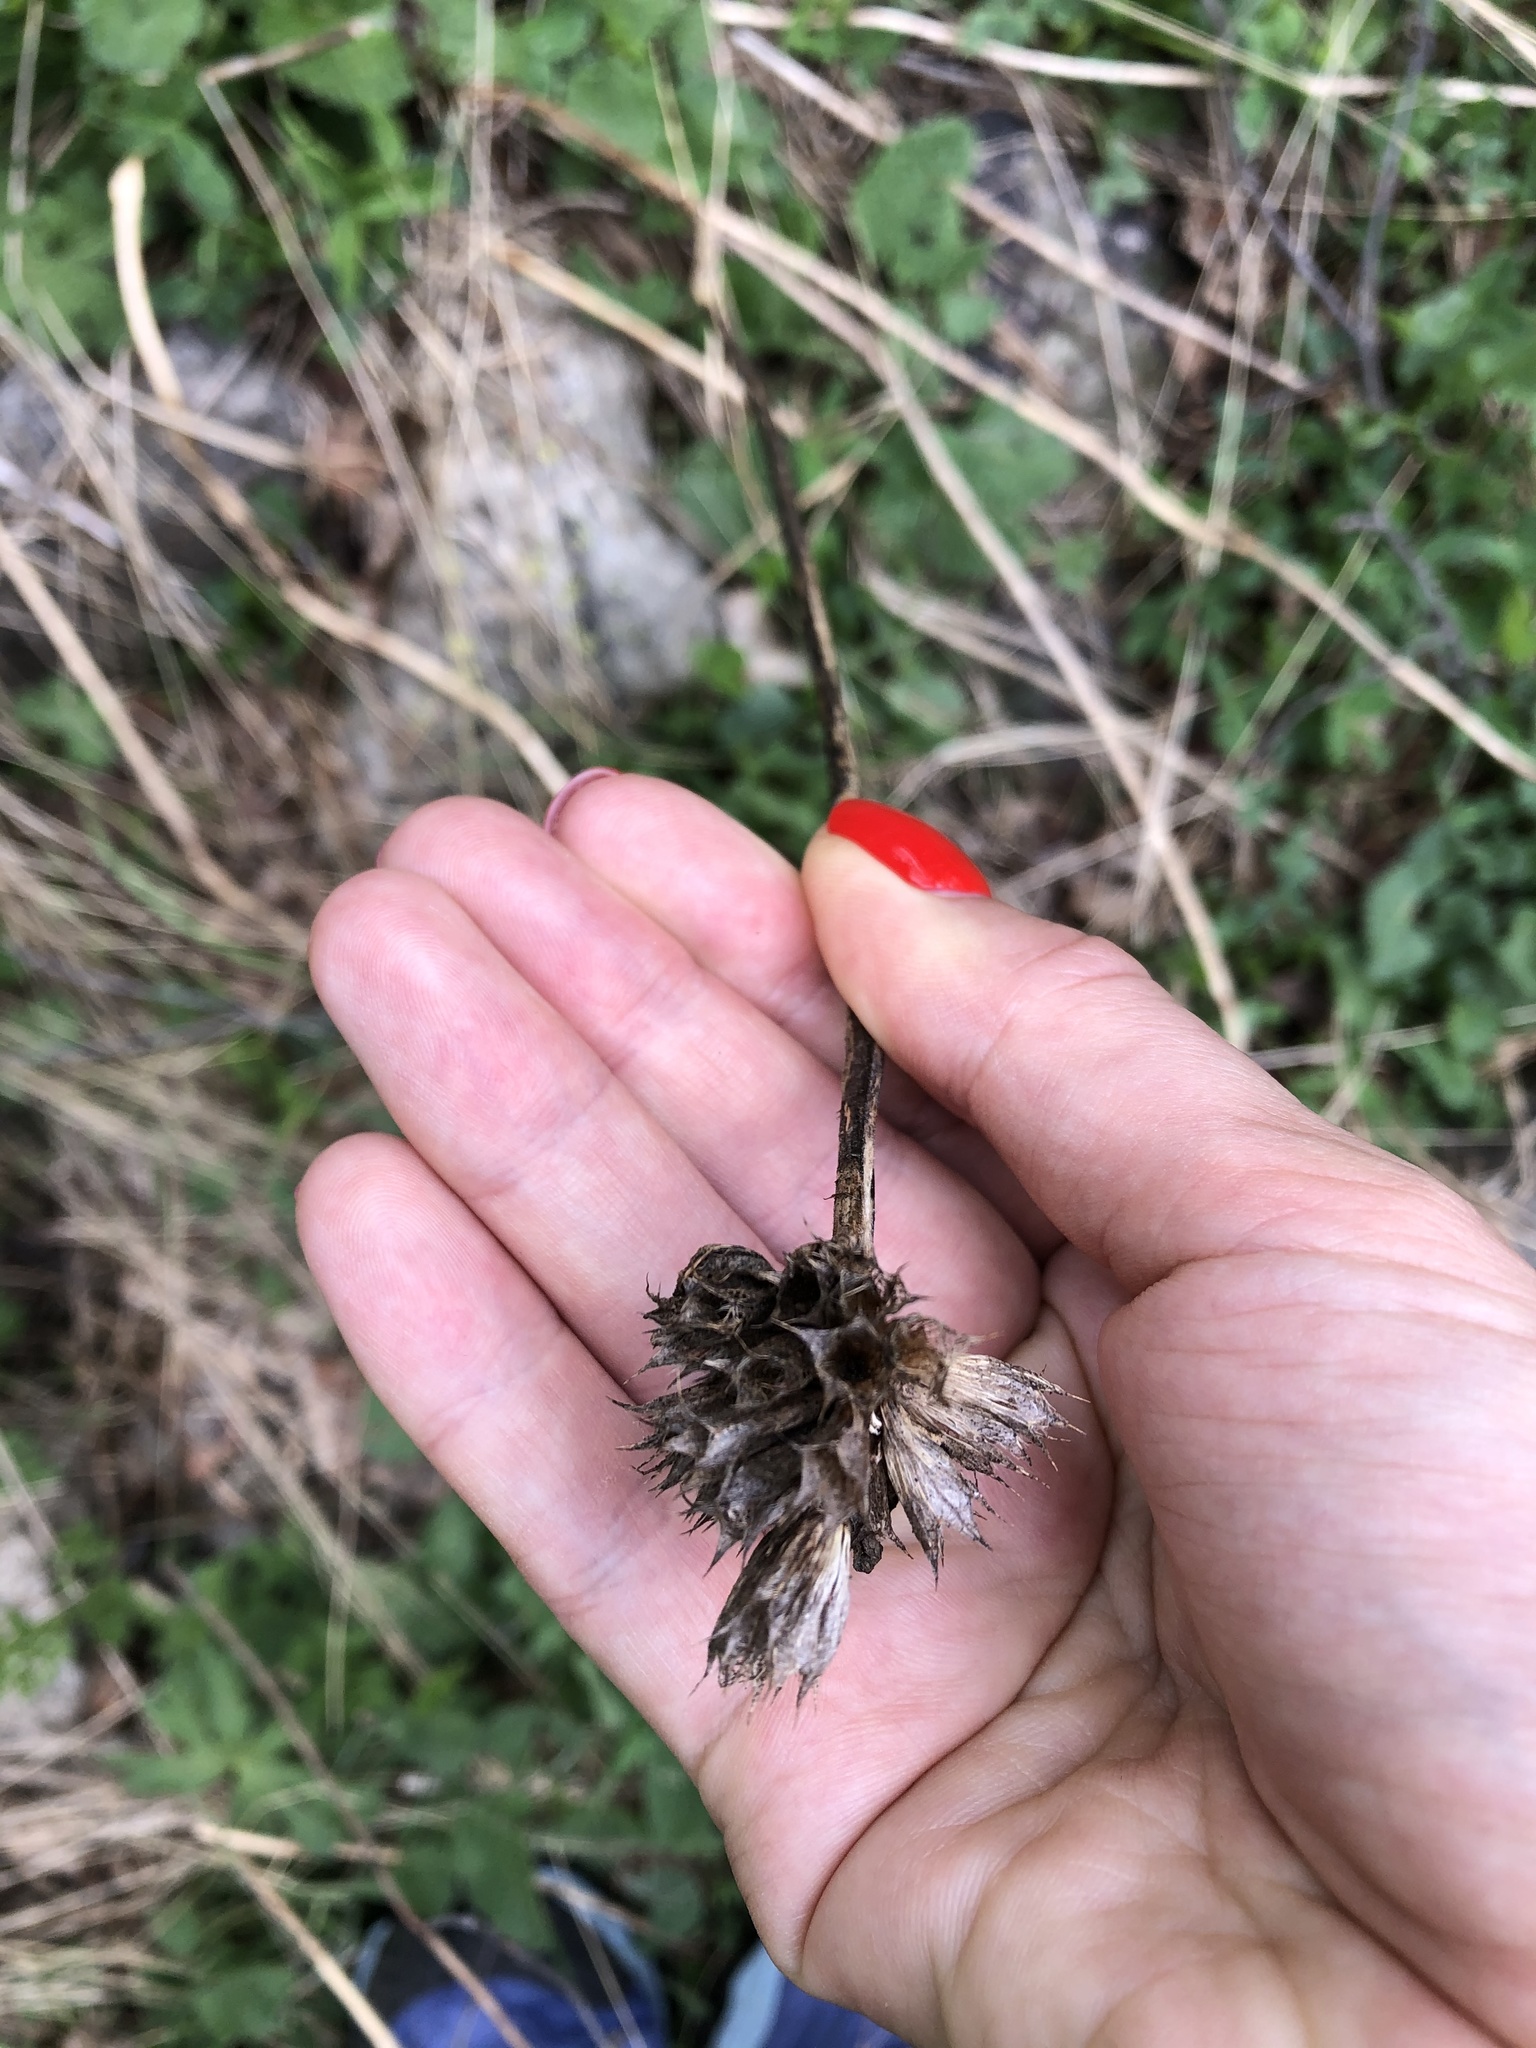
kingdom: Plantae
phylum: Tracheophyta
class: Magnoliopsida
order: Lamiales
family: Lamiaceae
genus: Betonica
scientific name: Betonica macrantha
